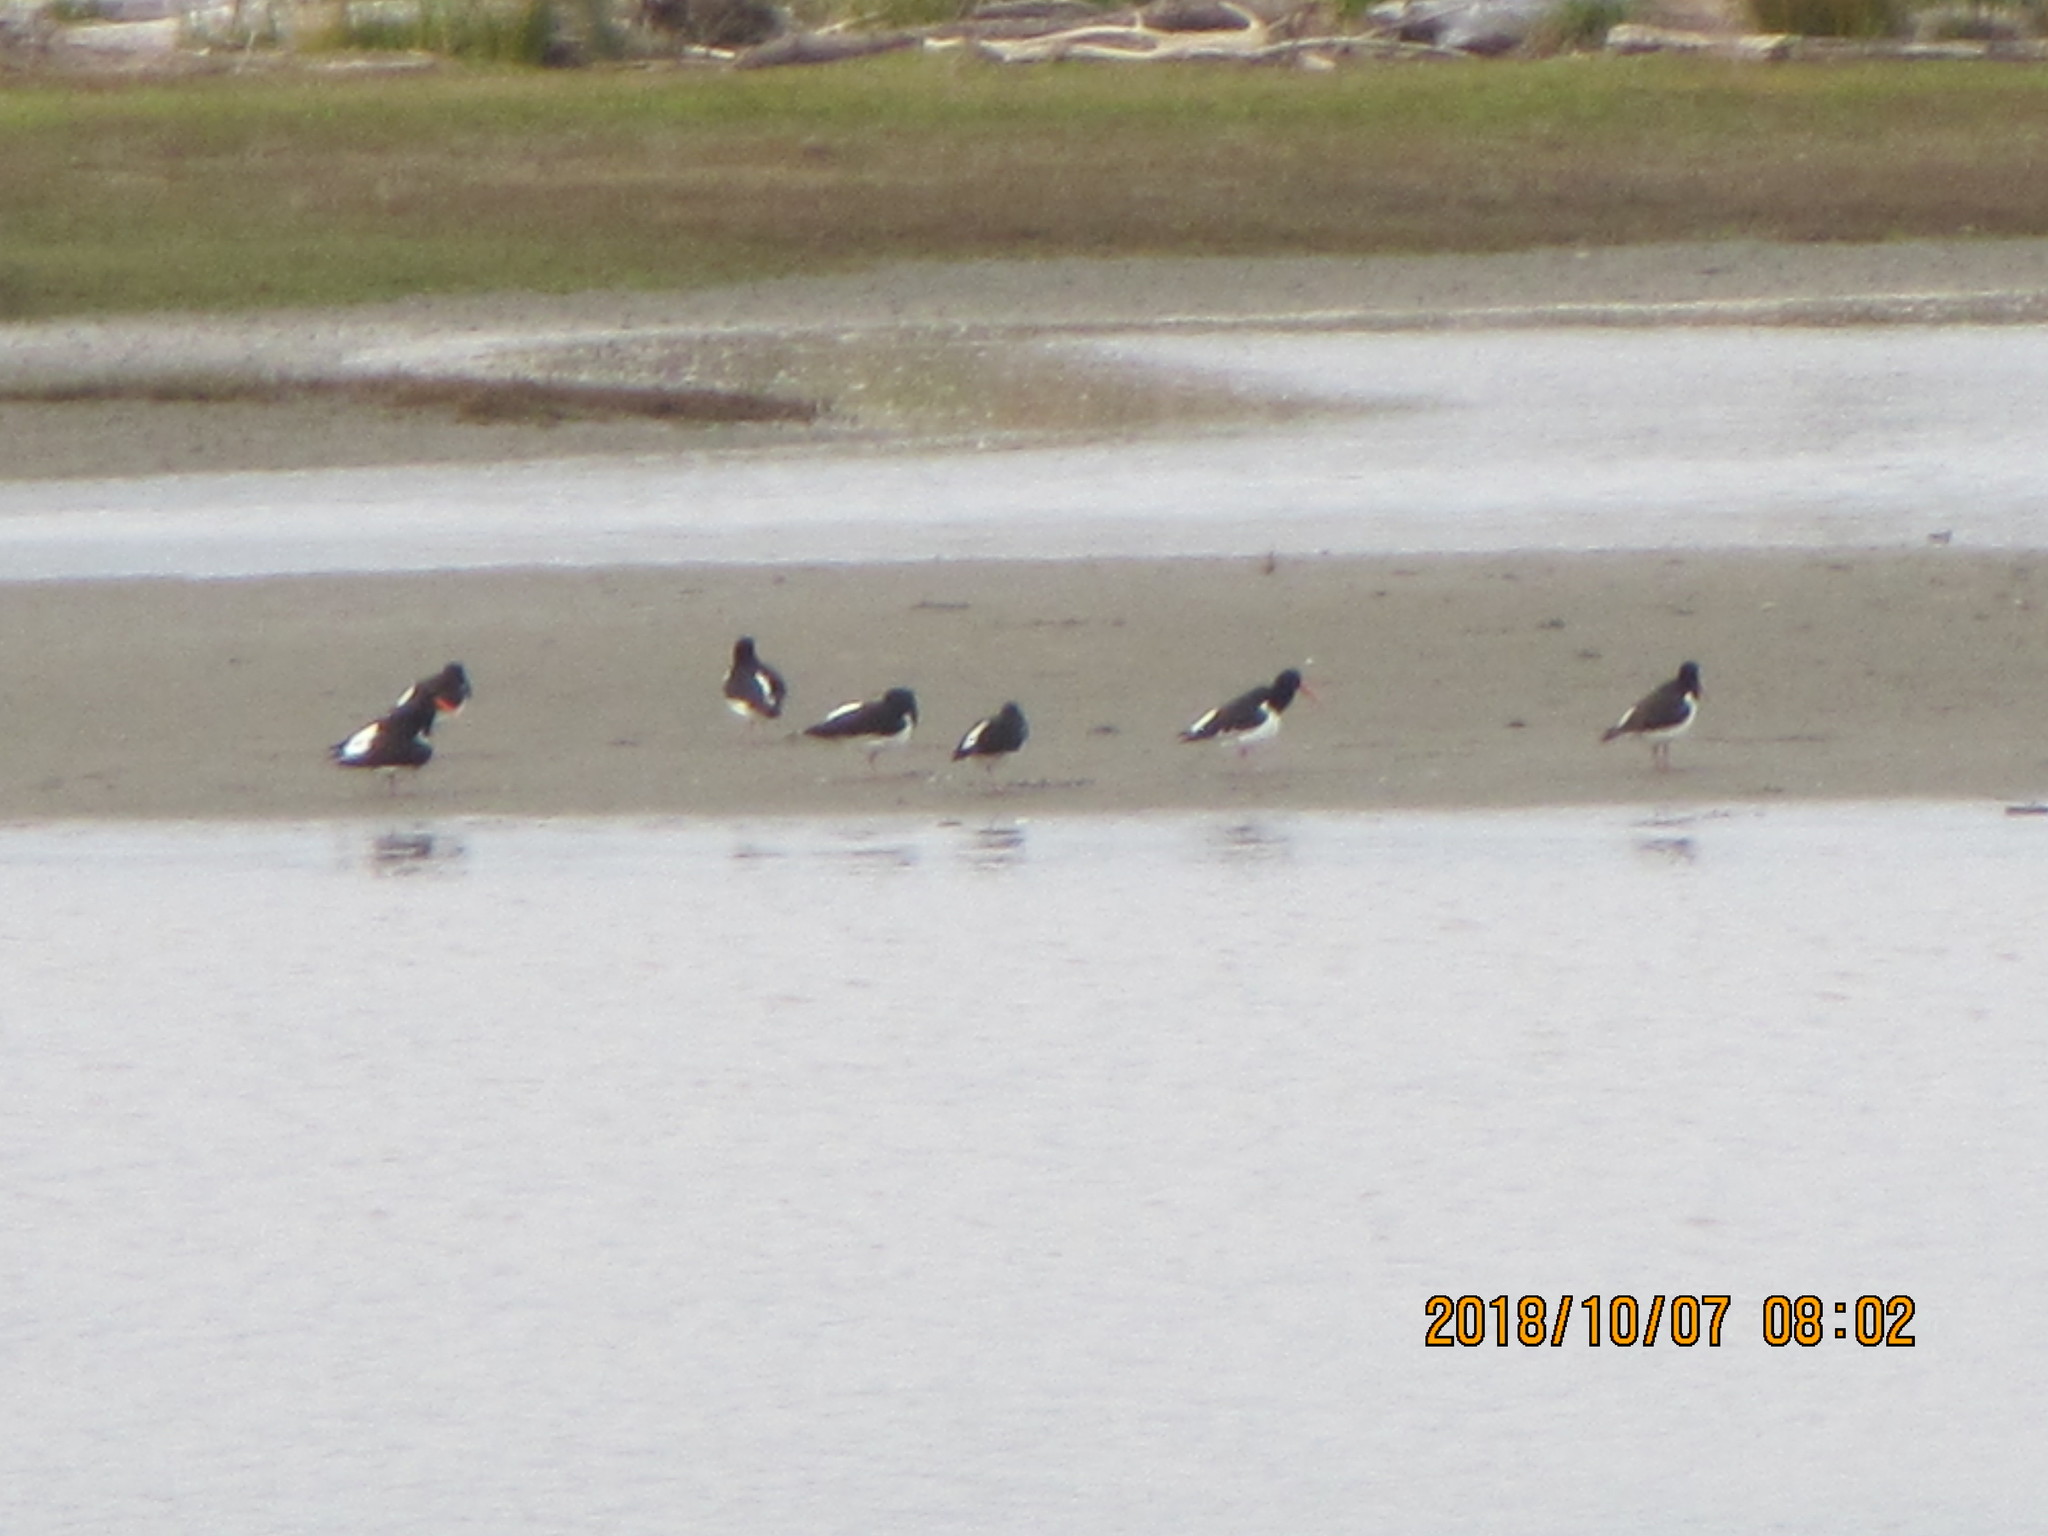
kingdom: Animalia
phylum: Chordata
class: Aves
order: Charadriiformes
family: Haematopodidae
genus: Haematopus
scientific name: Haematopus finschi
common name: South island oystercatcher
